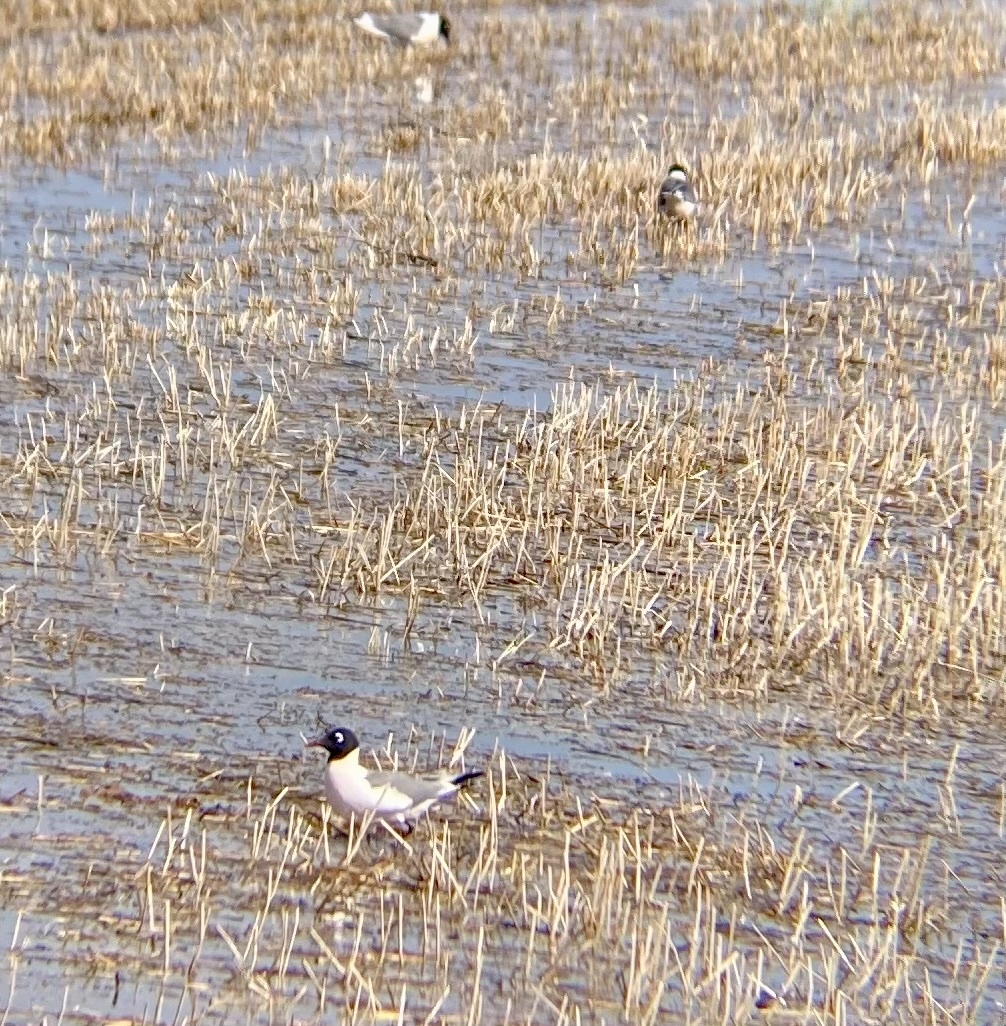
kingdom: Animalia
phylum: Chordata
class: Aves
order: Charadriiformes
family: Laridae
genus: Leucophaeus
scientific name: Leucophaeus pipixcan
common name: Franklin's gull
